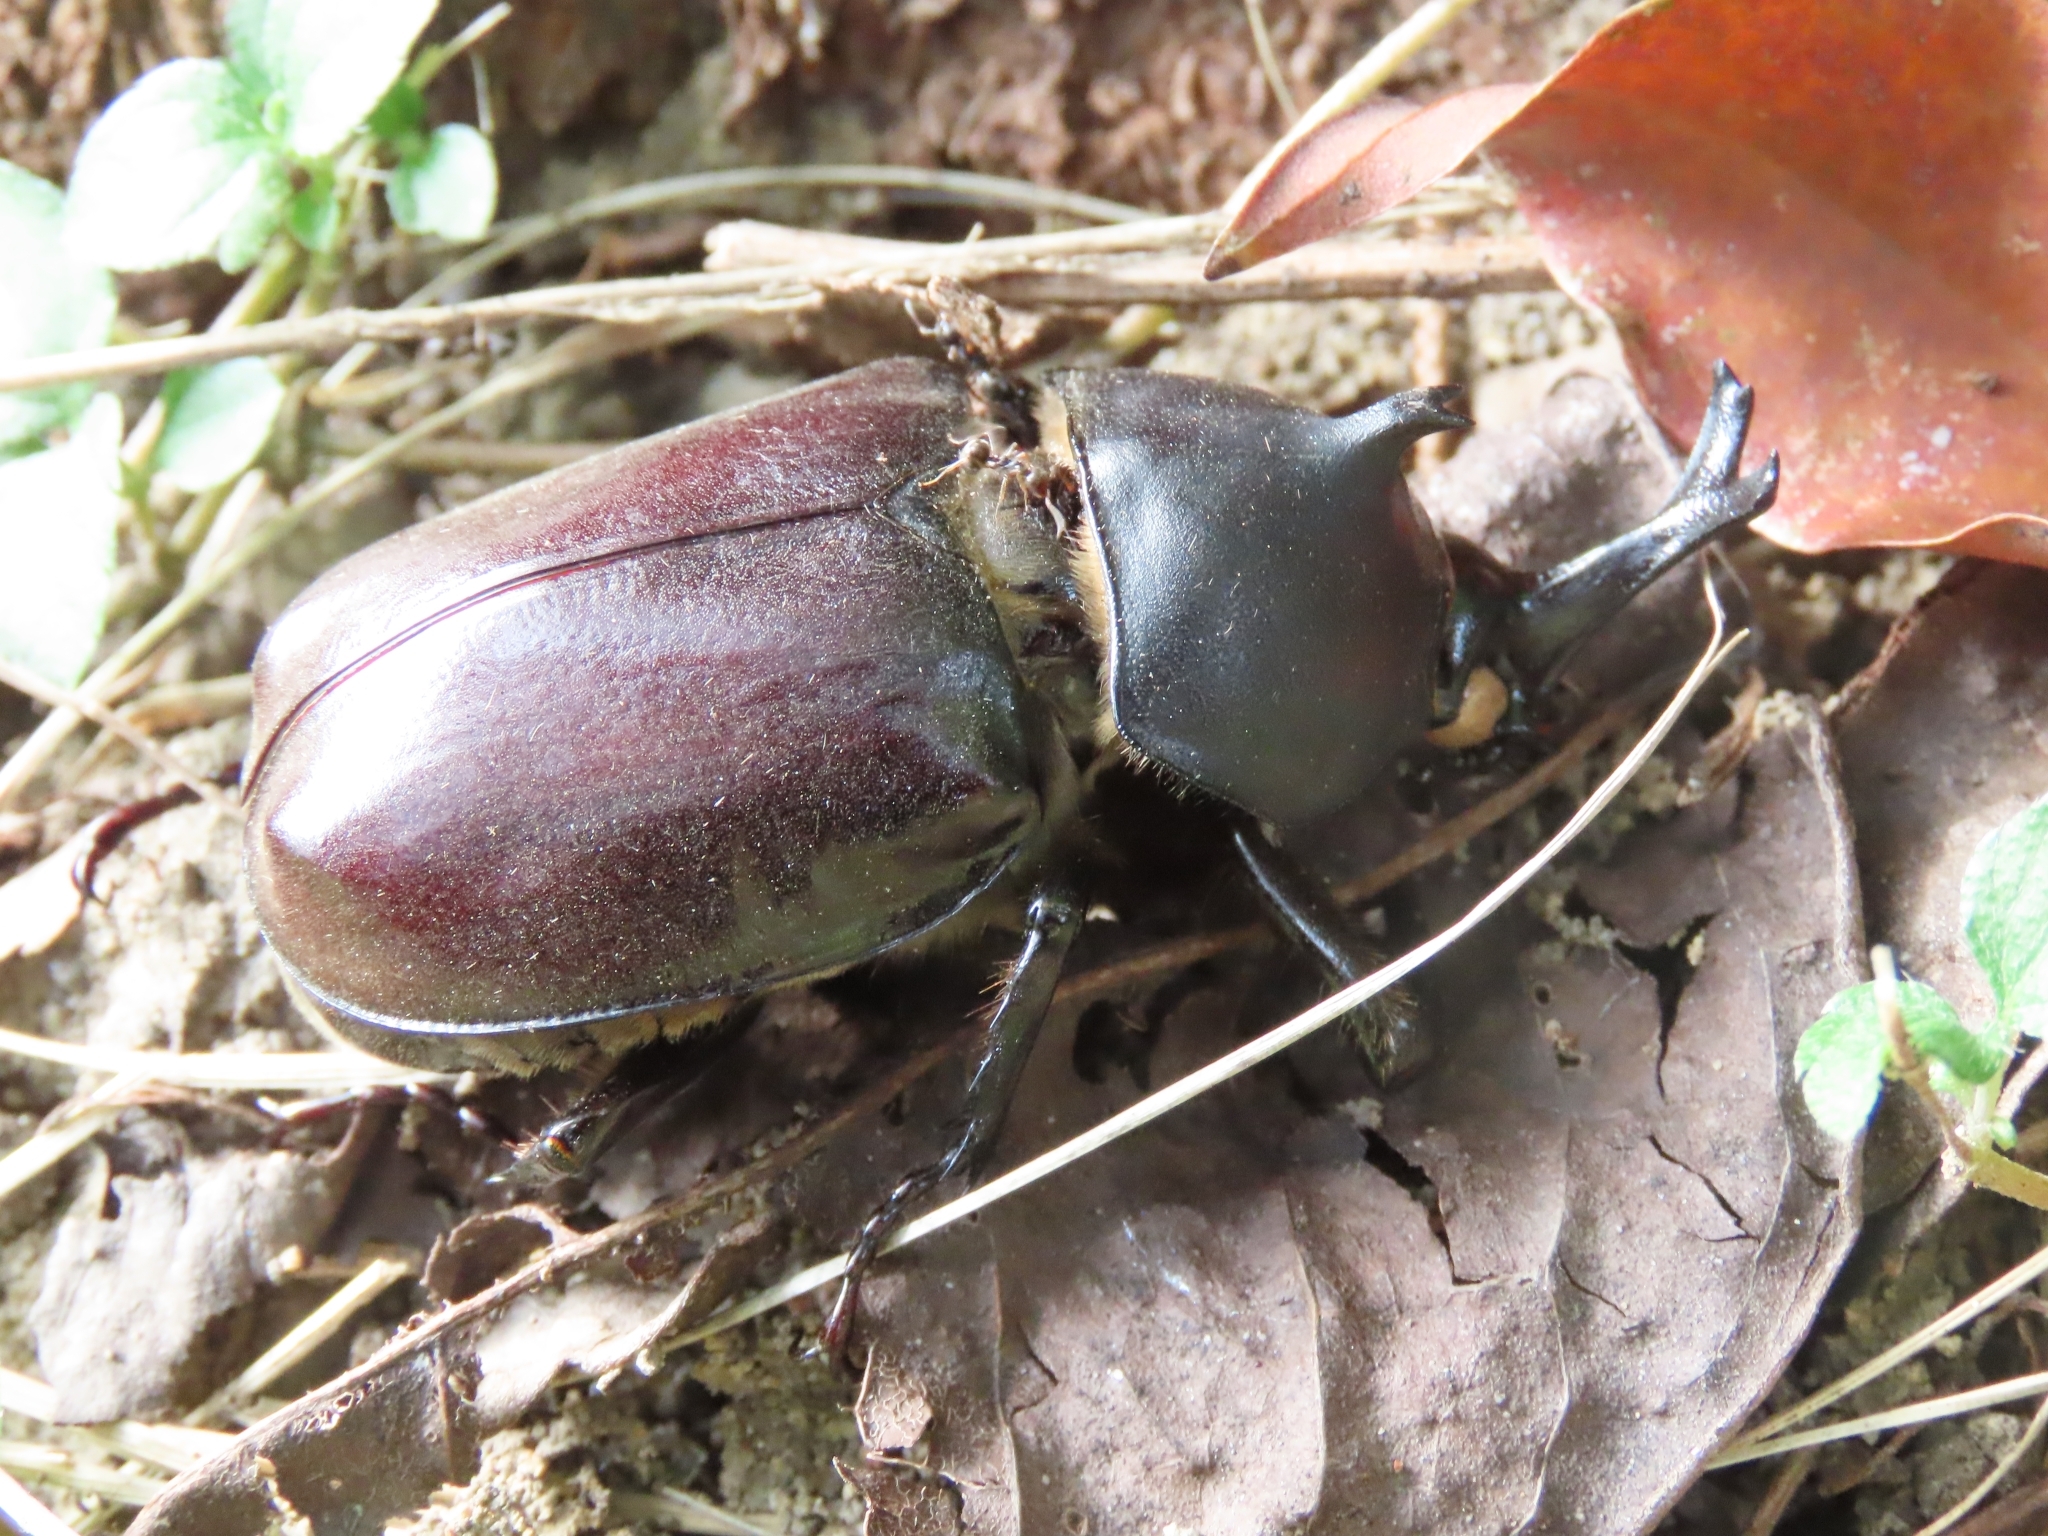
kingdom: Animalia
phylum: Arthropoda
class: Insecta
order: Coleoptera
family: Scarabaeidae
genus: Trypoxylus
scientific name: Trypoxylus dichotomus
